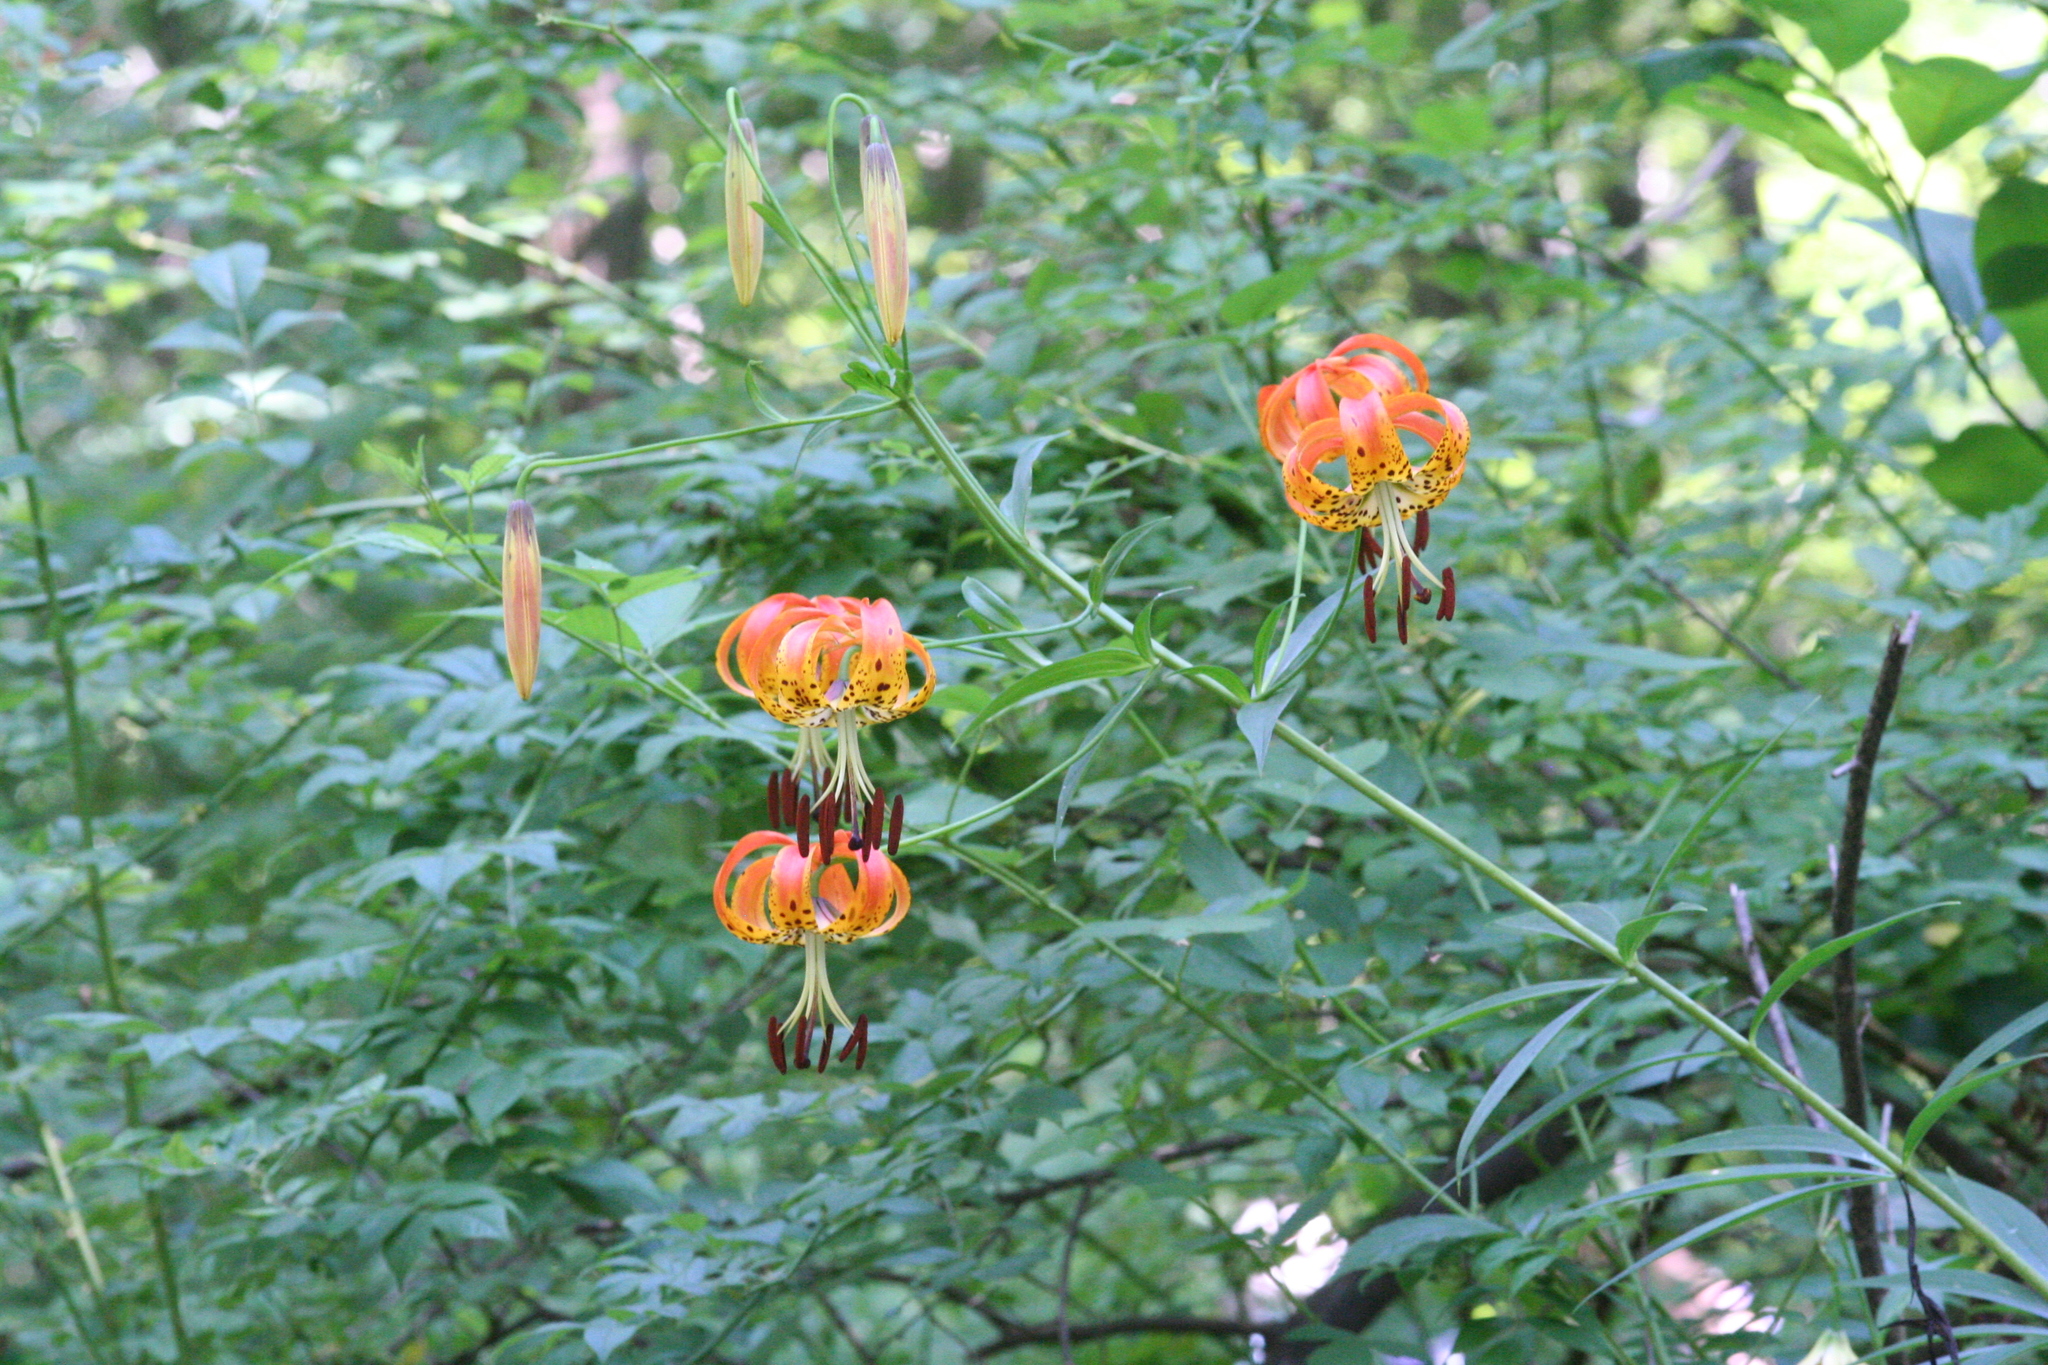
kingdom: Plantae
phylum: Tracheophyta
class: Liliopsida
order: Liliales
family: Liliaceae
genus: Lilium
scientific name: Lilium superbum
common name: American turk's-cap lily
